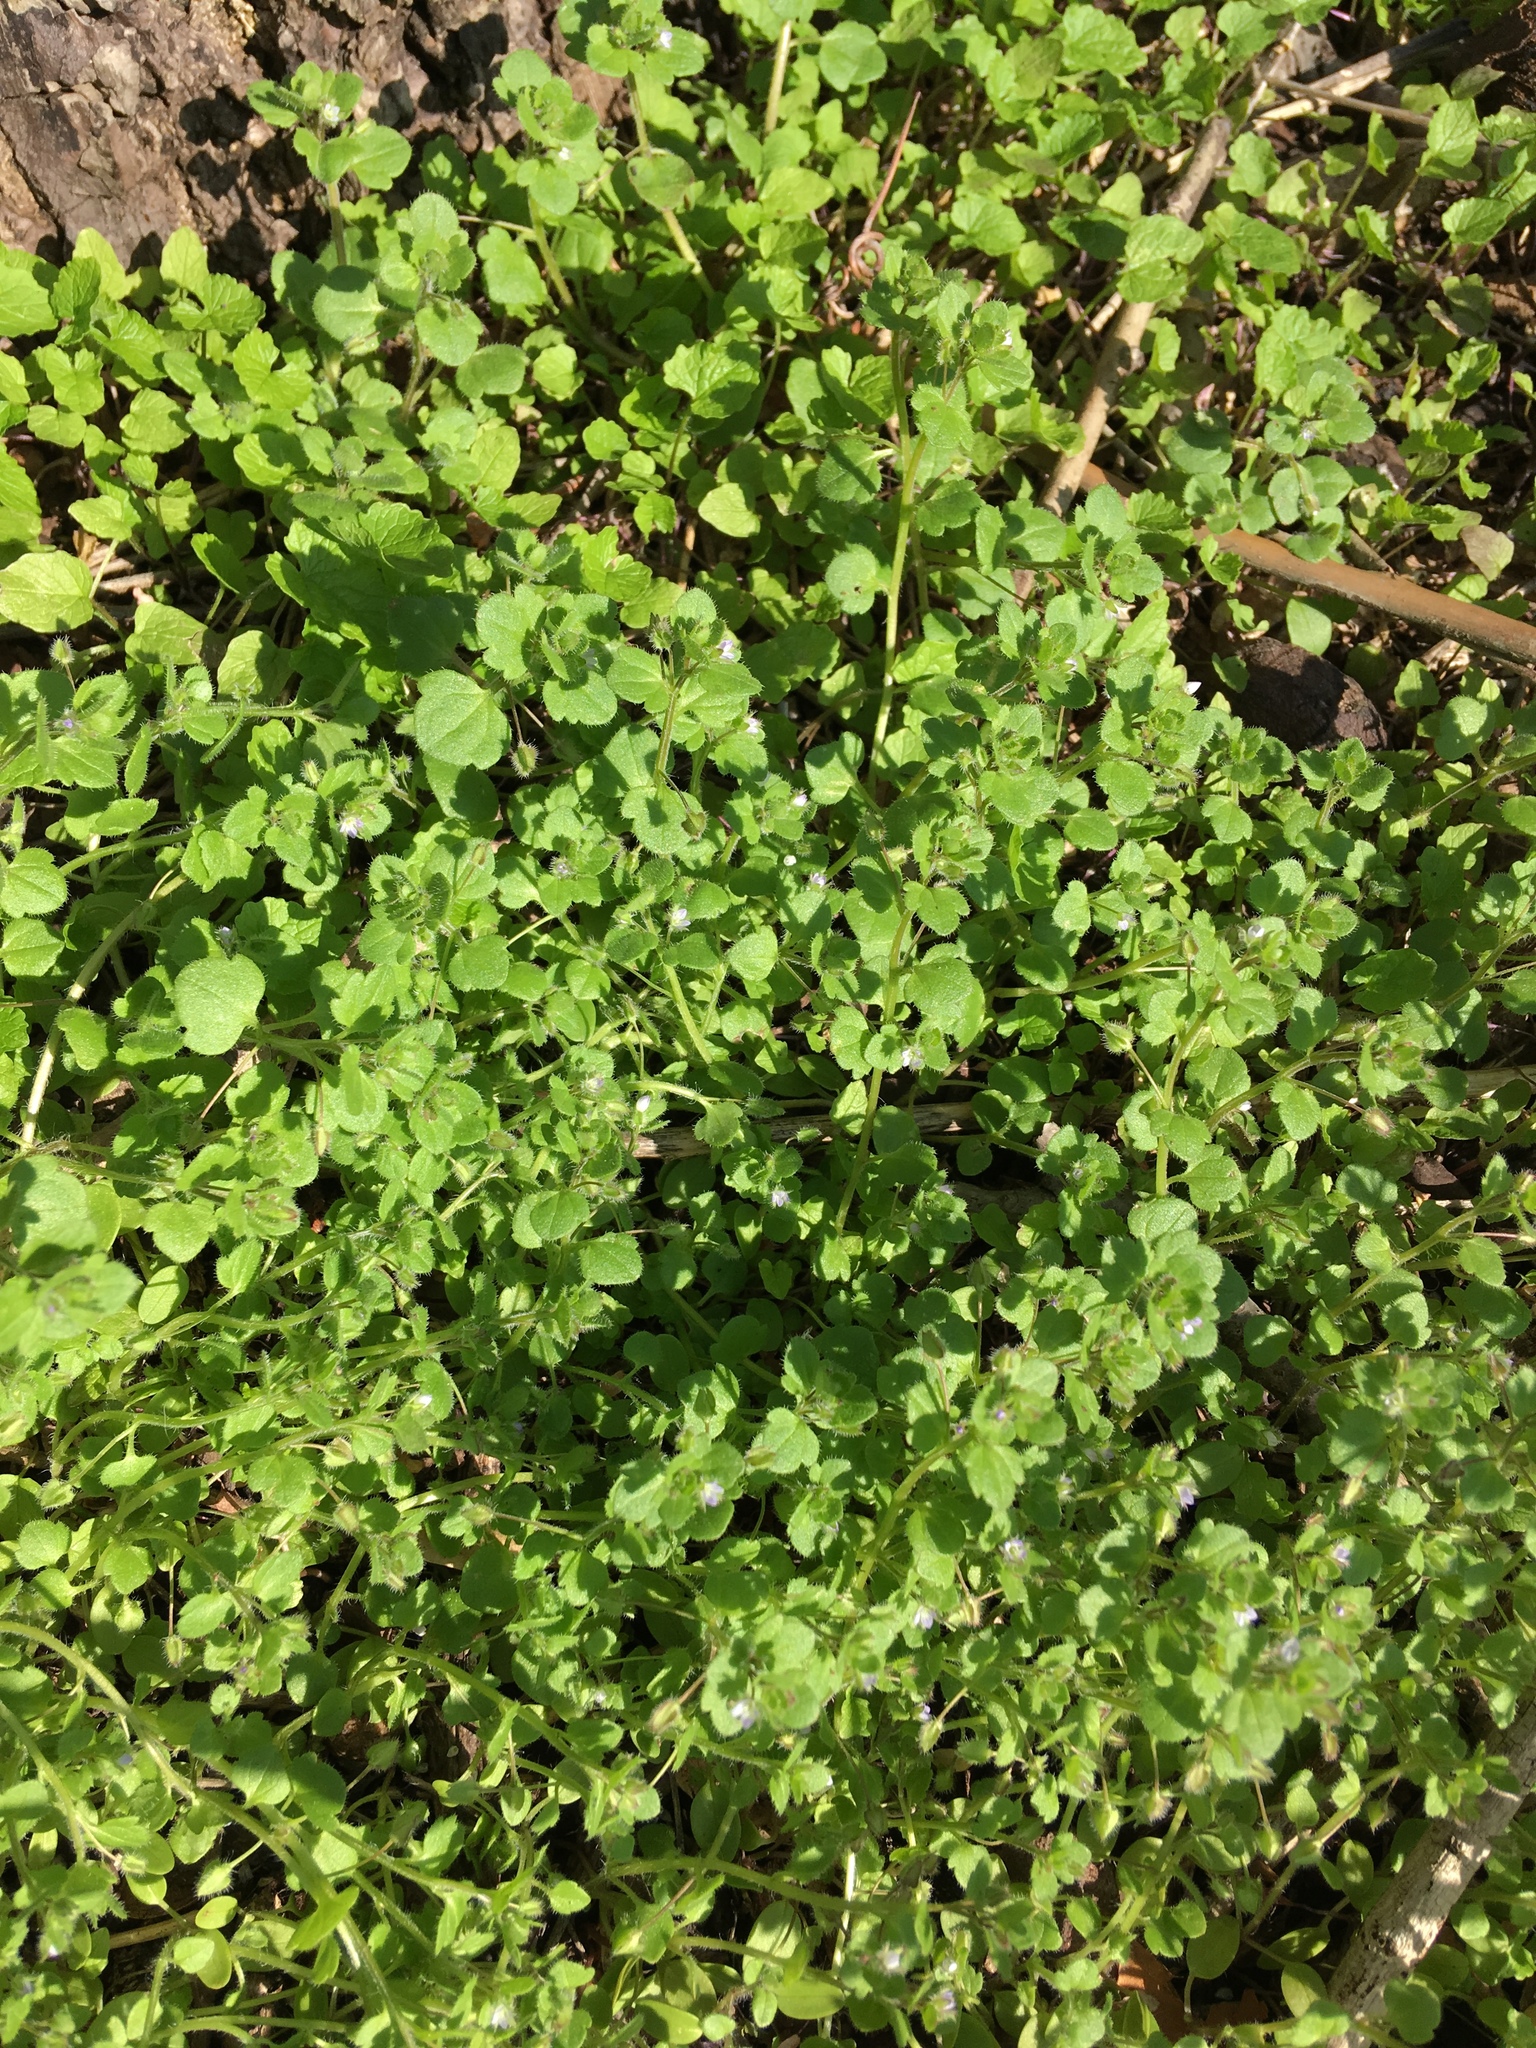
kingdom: Plantae
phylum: Tracheophyta
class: Magnoliopsida
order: Lamiales
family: Plantaginaceae
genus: Veronica
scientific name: Veronica hederifolia
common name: Ivy-leaved speedwell
